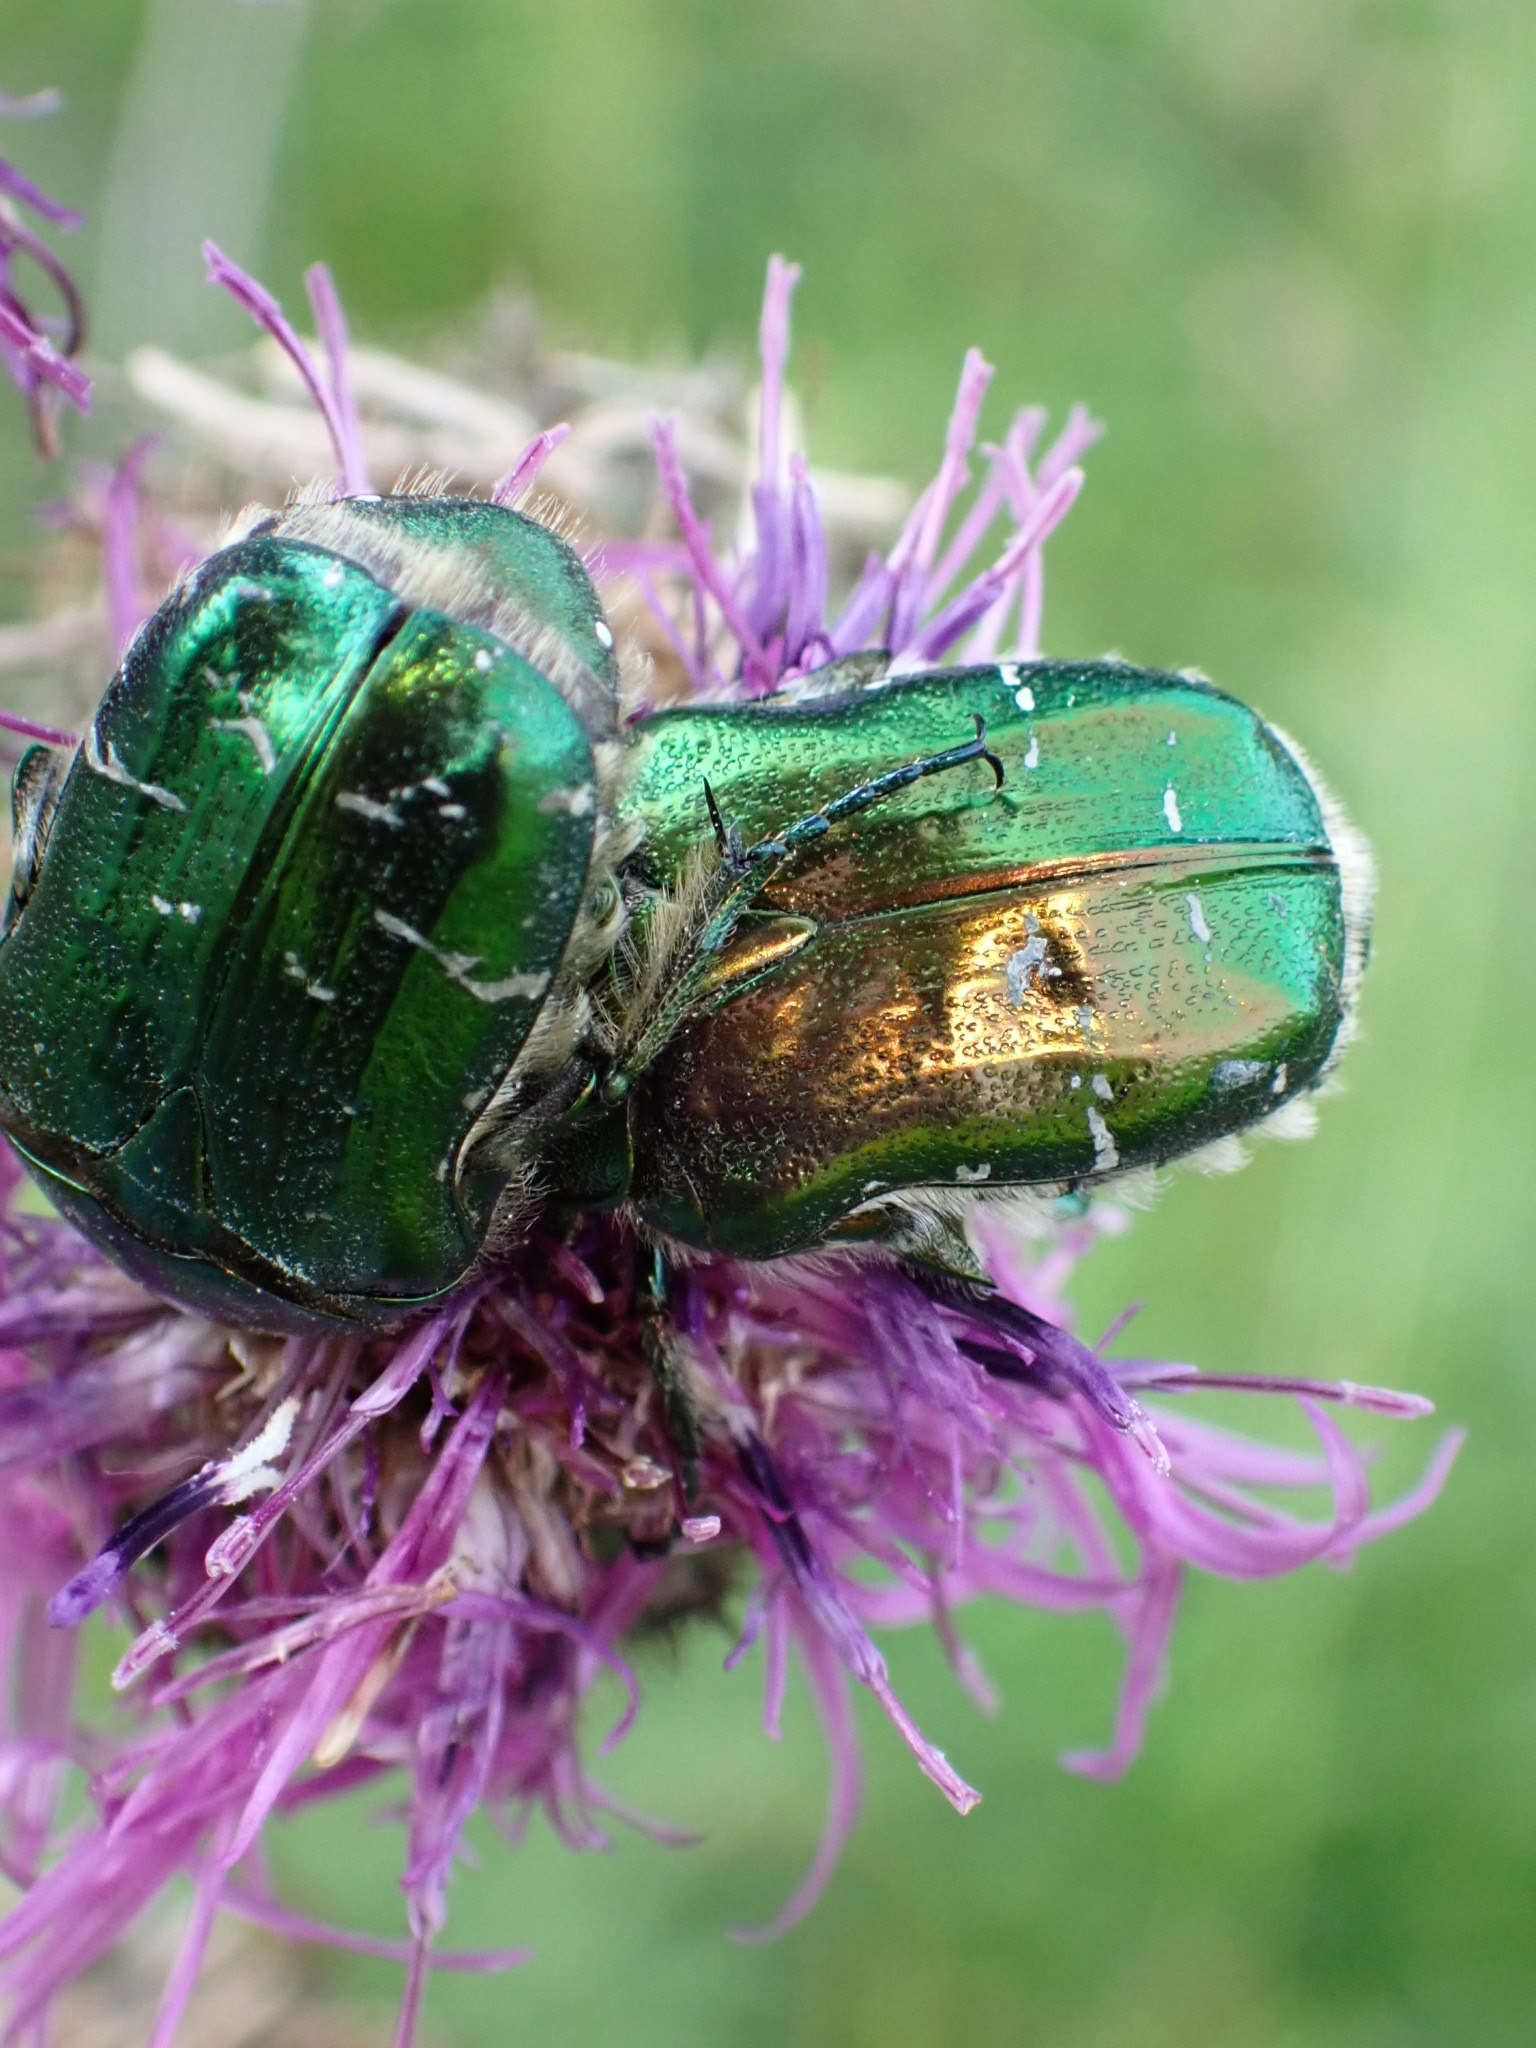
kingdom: Animalia
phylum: Arthropoda
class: Insecta
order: Coleoptera
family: Scarabaeidae
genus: Cetonia
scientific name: Cetonia aurata
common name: Rose chafer
